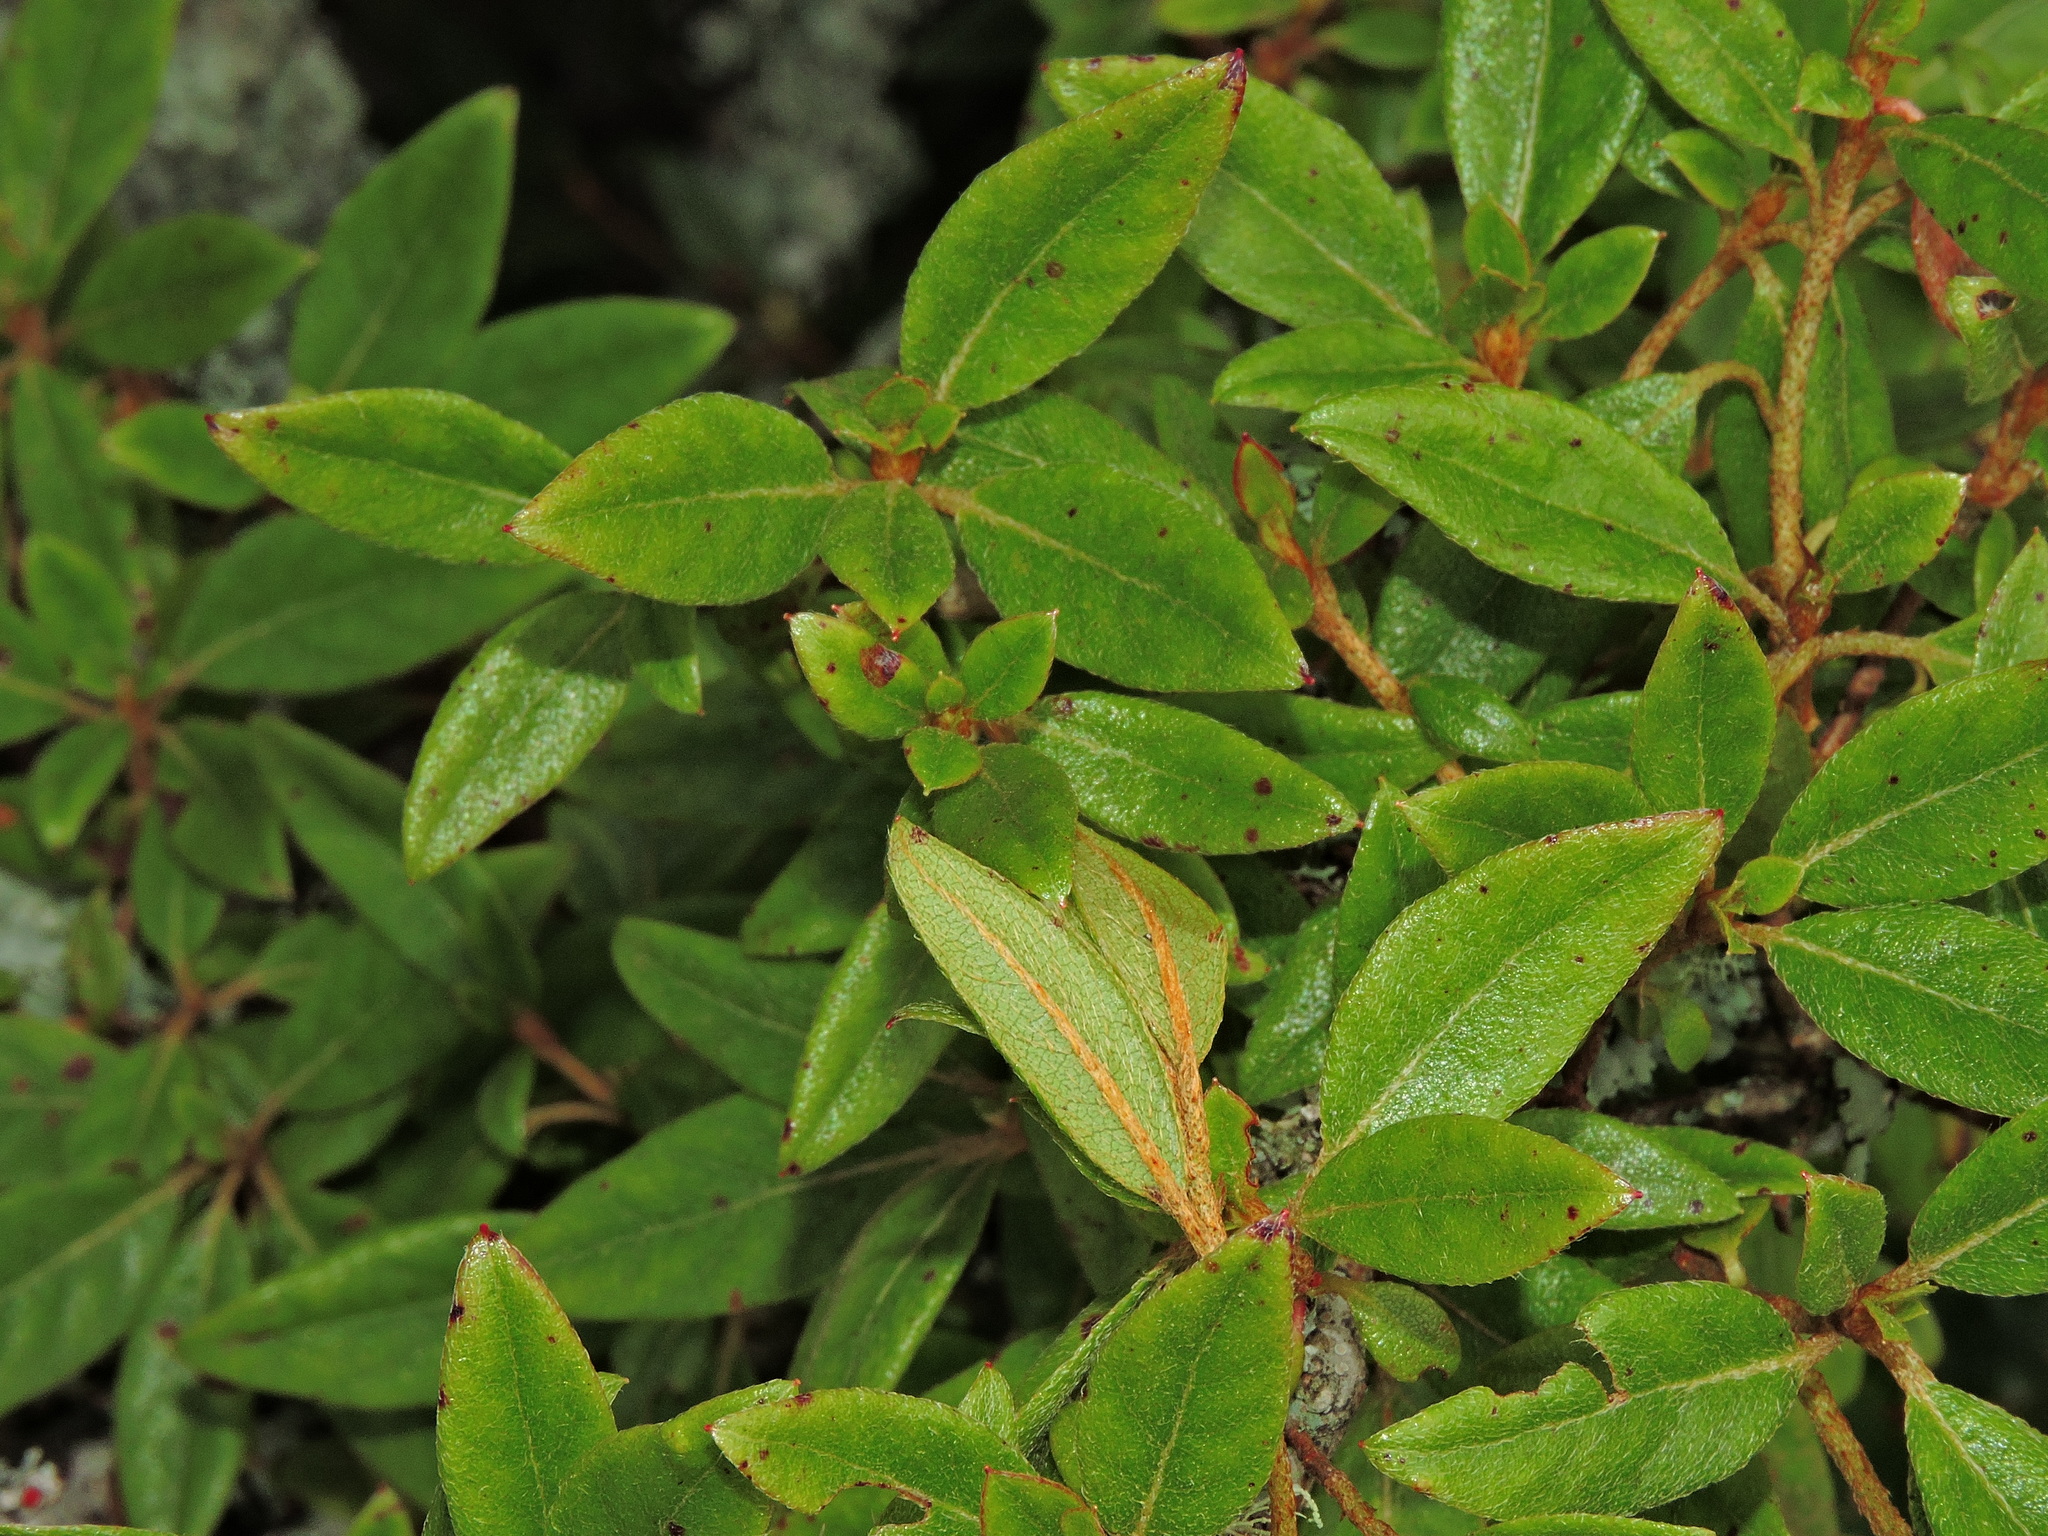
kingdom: Plantae
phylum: Tracheophyta
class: Magnoliopsida
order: Ericales
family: Ericaceae
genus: Rhododendron
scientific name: Rhododendron rubropilosum
